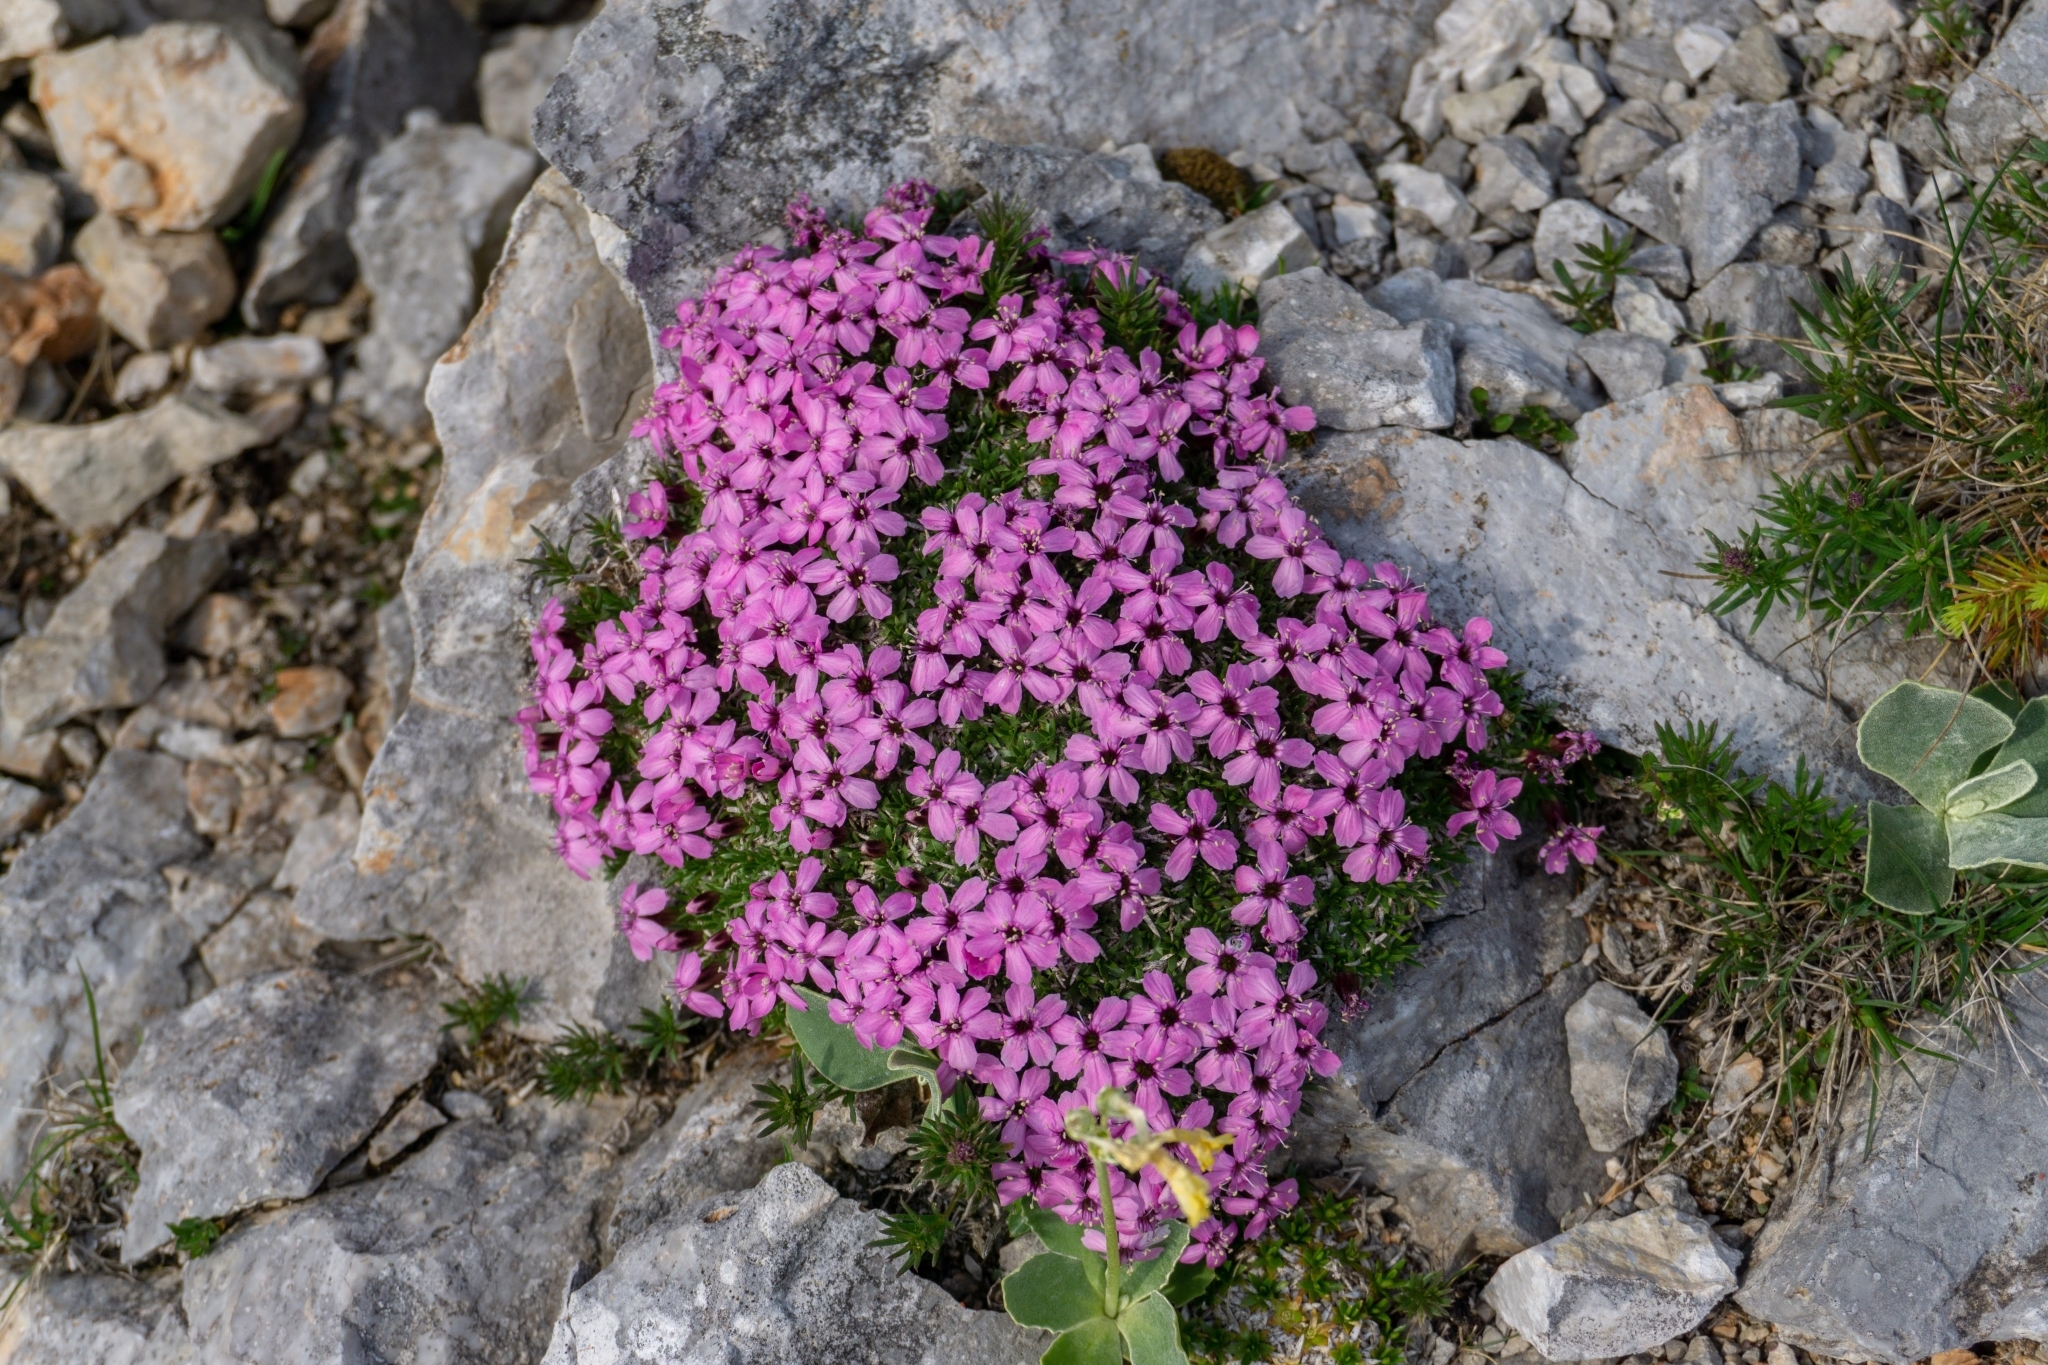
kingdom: Plantae
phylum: Tracheophyta
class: Magnoliopsida
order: Caryophyllales
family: Caryophyllaceae
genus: Silene
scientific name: Silene acaulis
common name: Moss campion
